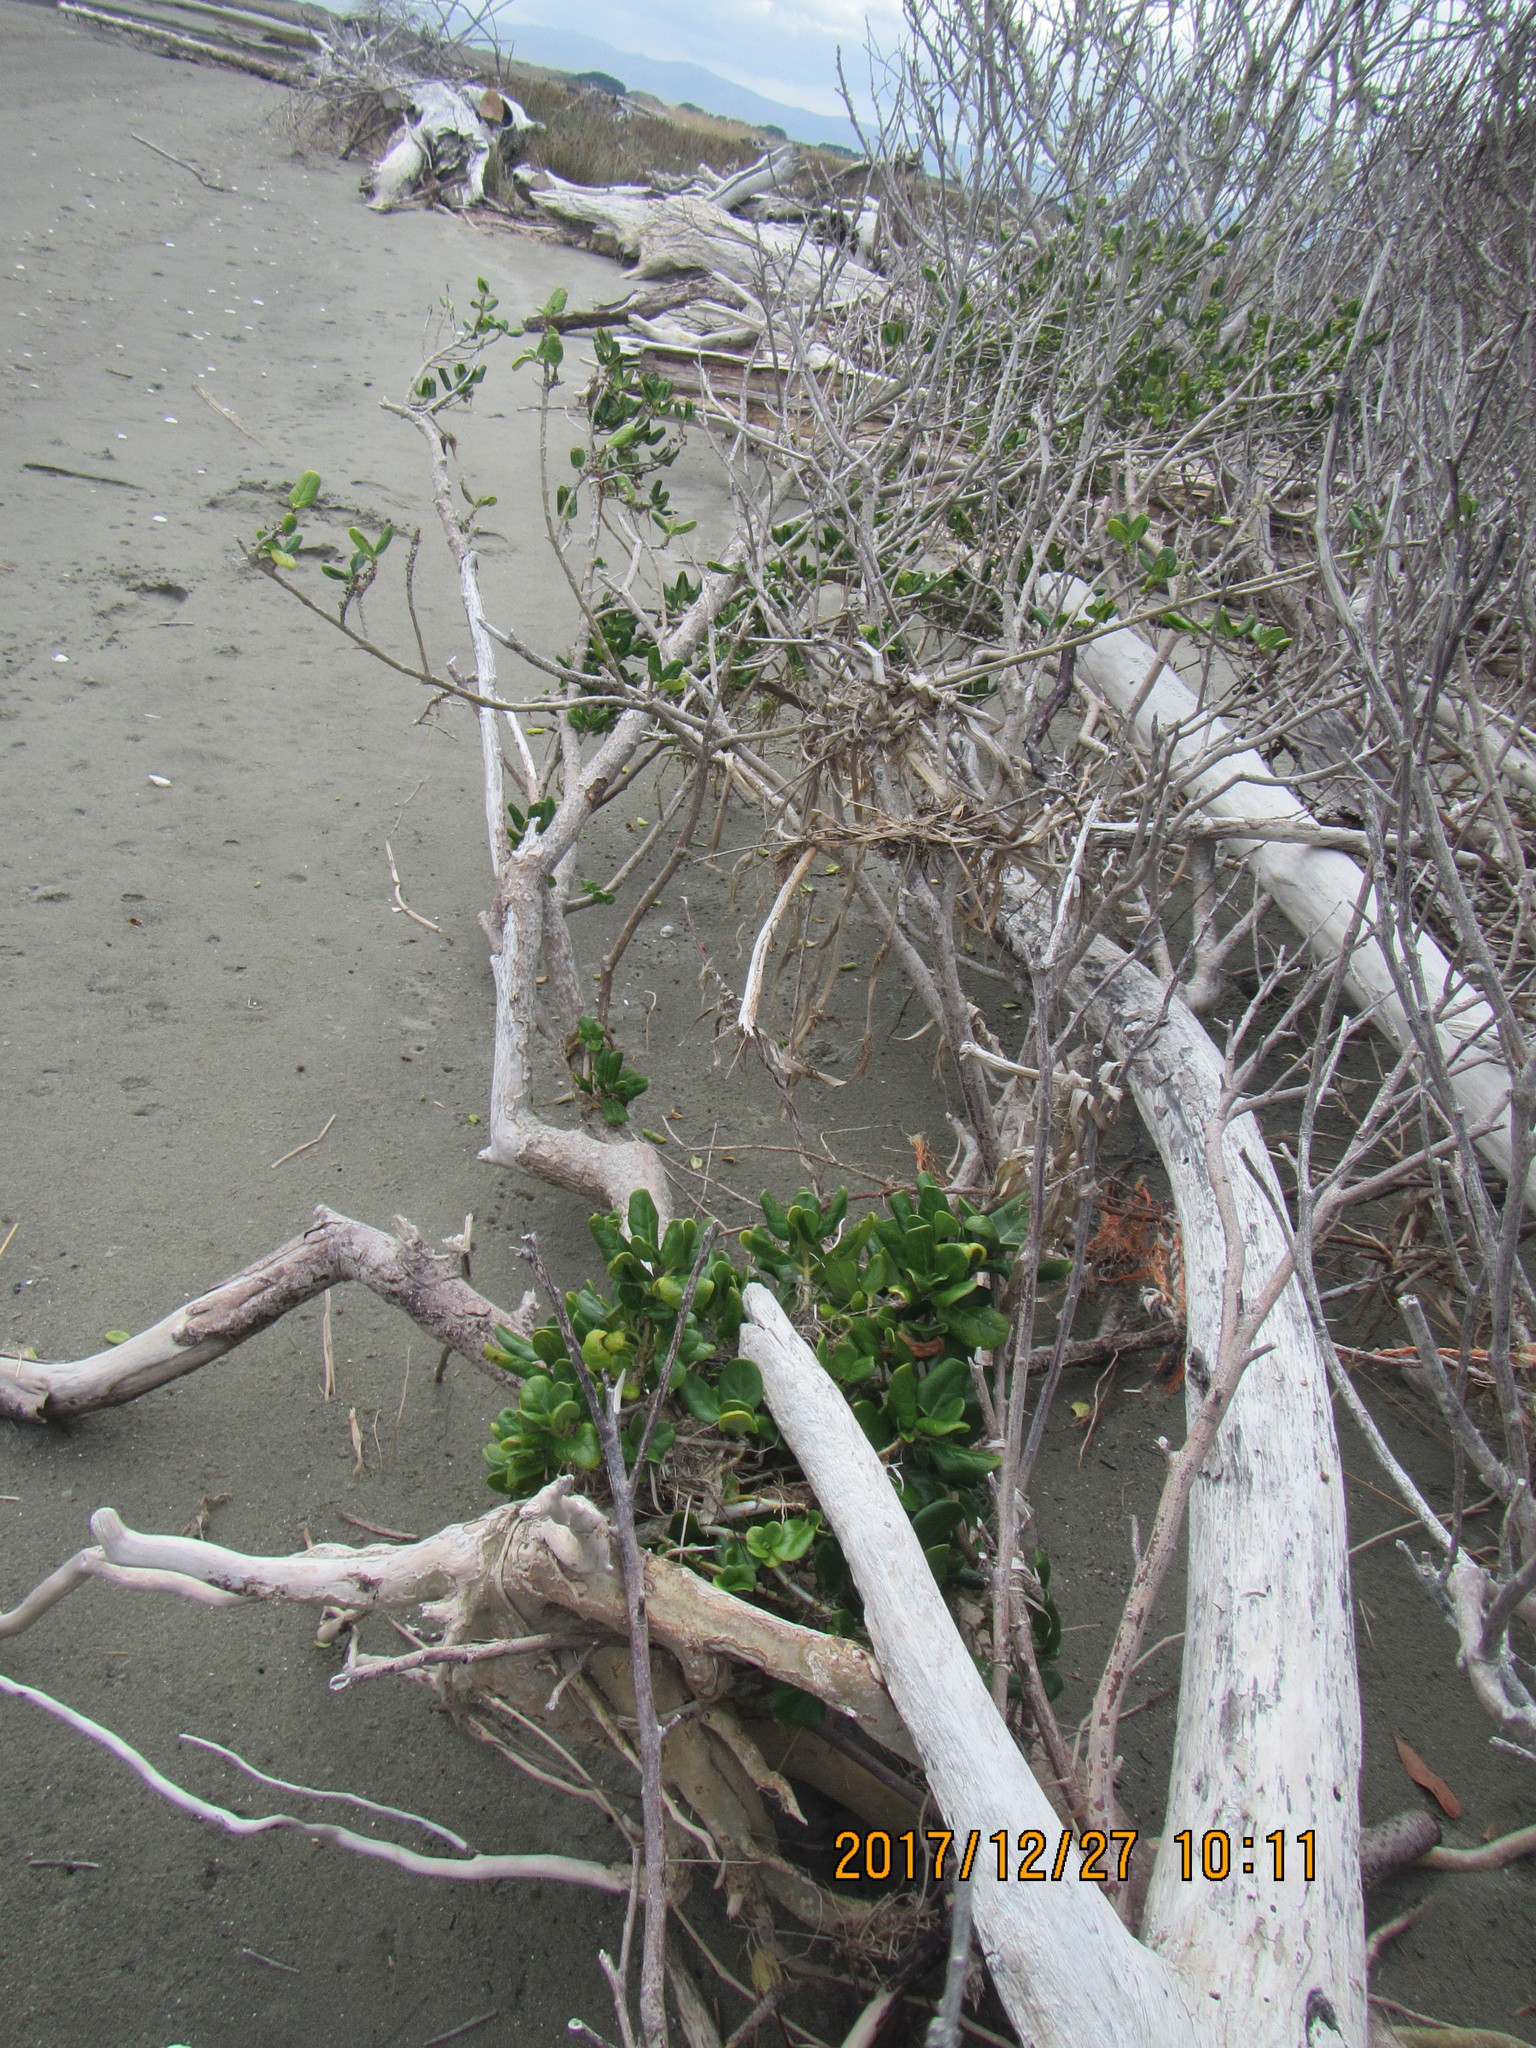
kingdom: Plantae
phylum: Tracheophyta
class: Magnoliopsida
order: Gentianales
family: Rubiaceae
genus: Coprosma
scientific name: Coprosma repens
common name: Tree bedstraw
